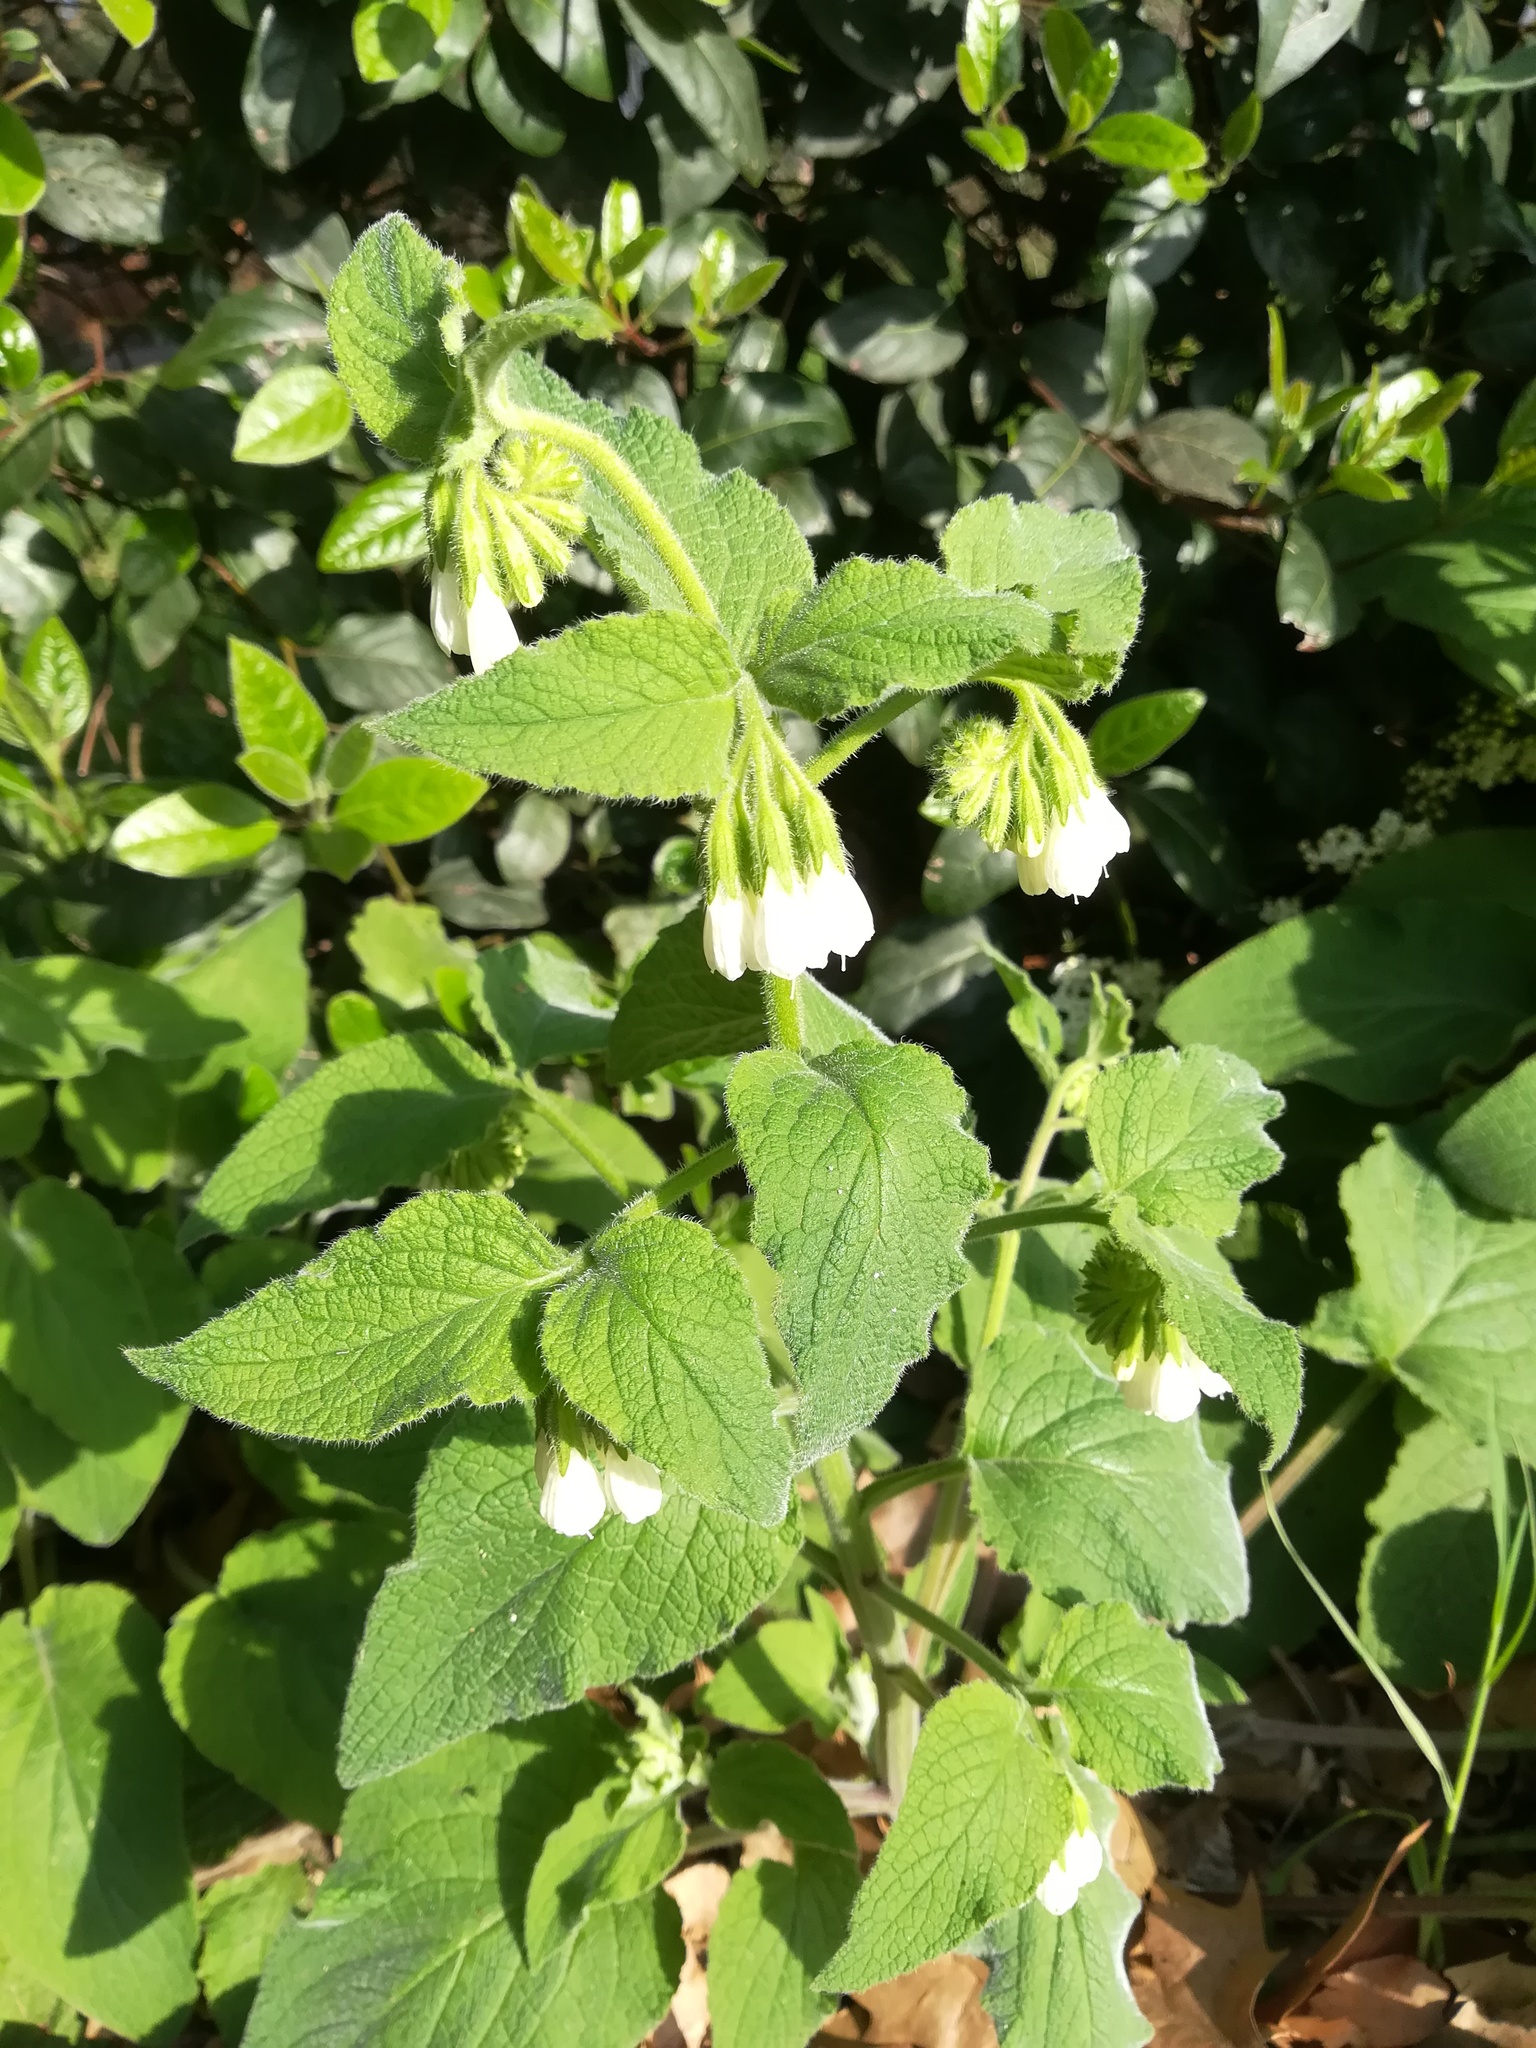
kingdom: Plantae
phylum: Tracheophyta
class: Magnoliopsida
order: Boraginales
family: Boraginaceae
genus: Symphytum
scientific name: Symphytum orientale
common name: White comfrey
